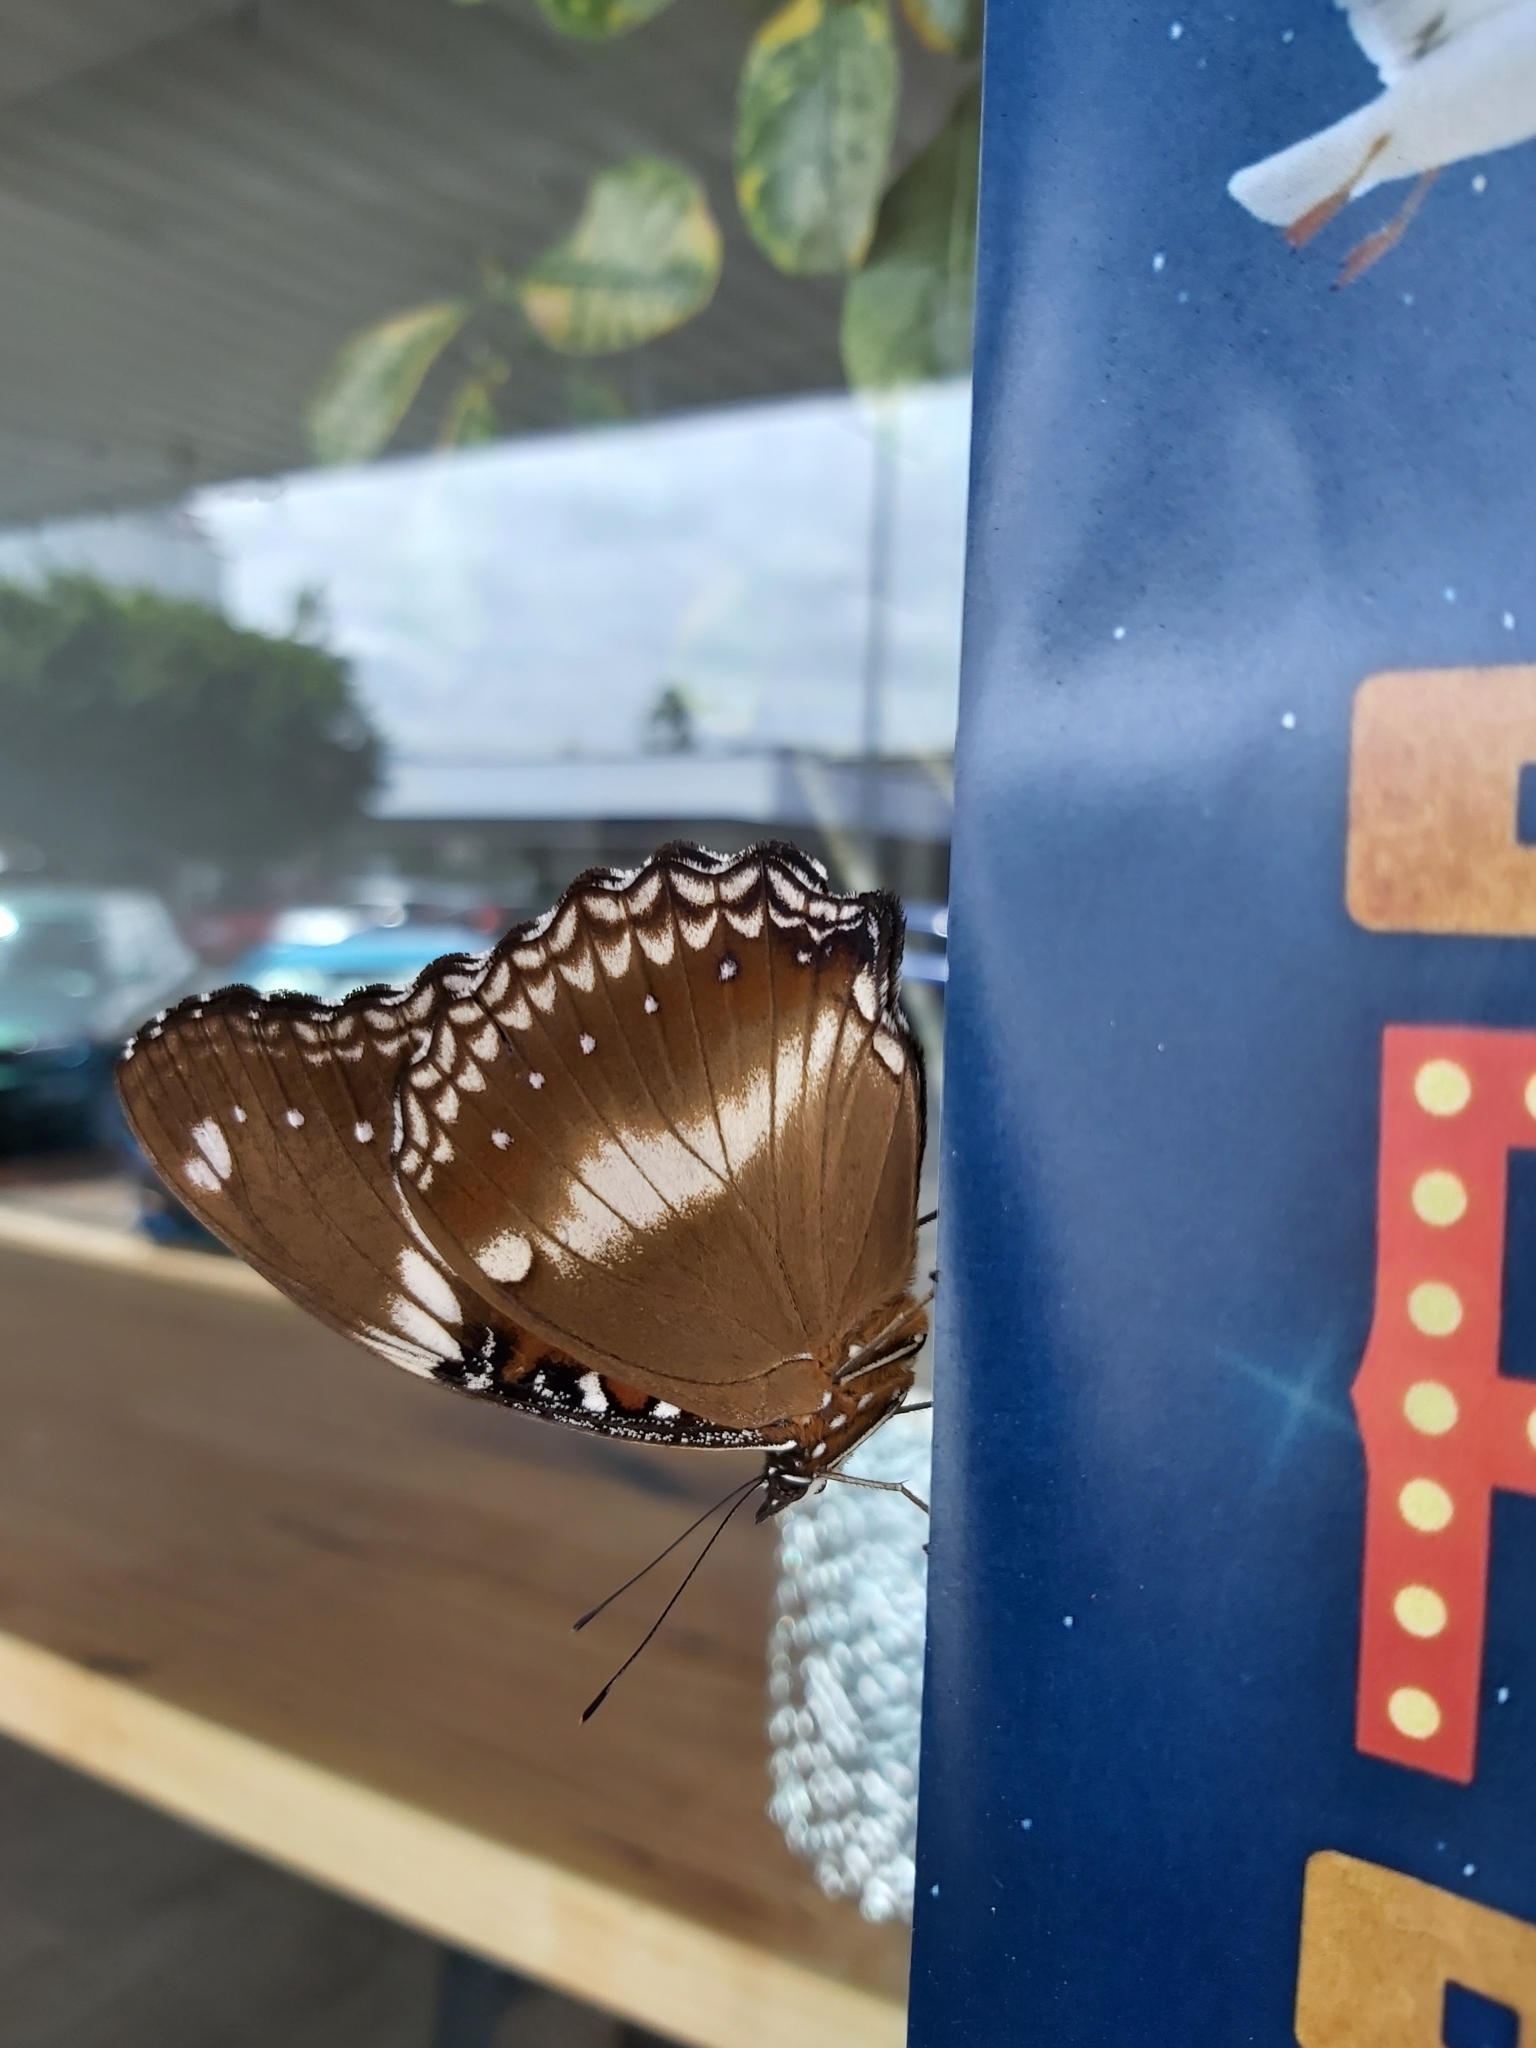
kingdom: Animalia
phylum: Arthropoda
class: Insecta
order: Lepidoptera
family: Nymphalidae
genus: Hypolimnas
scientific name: Hypolimnas bolina
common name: Great eggfly
